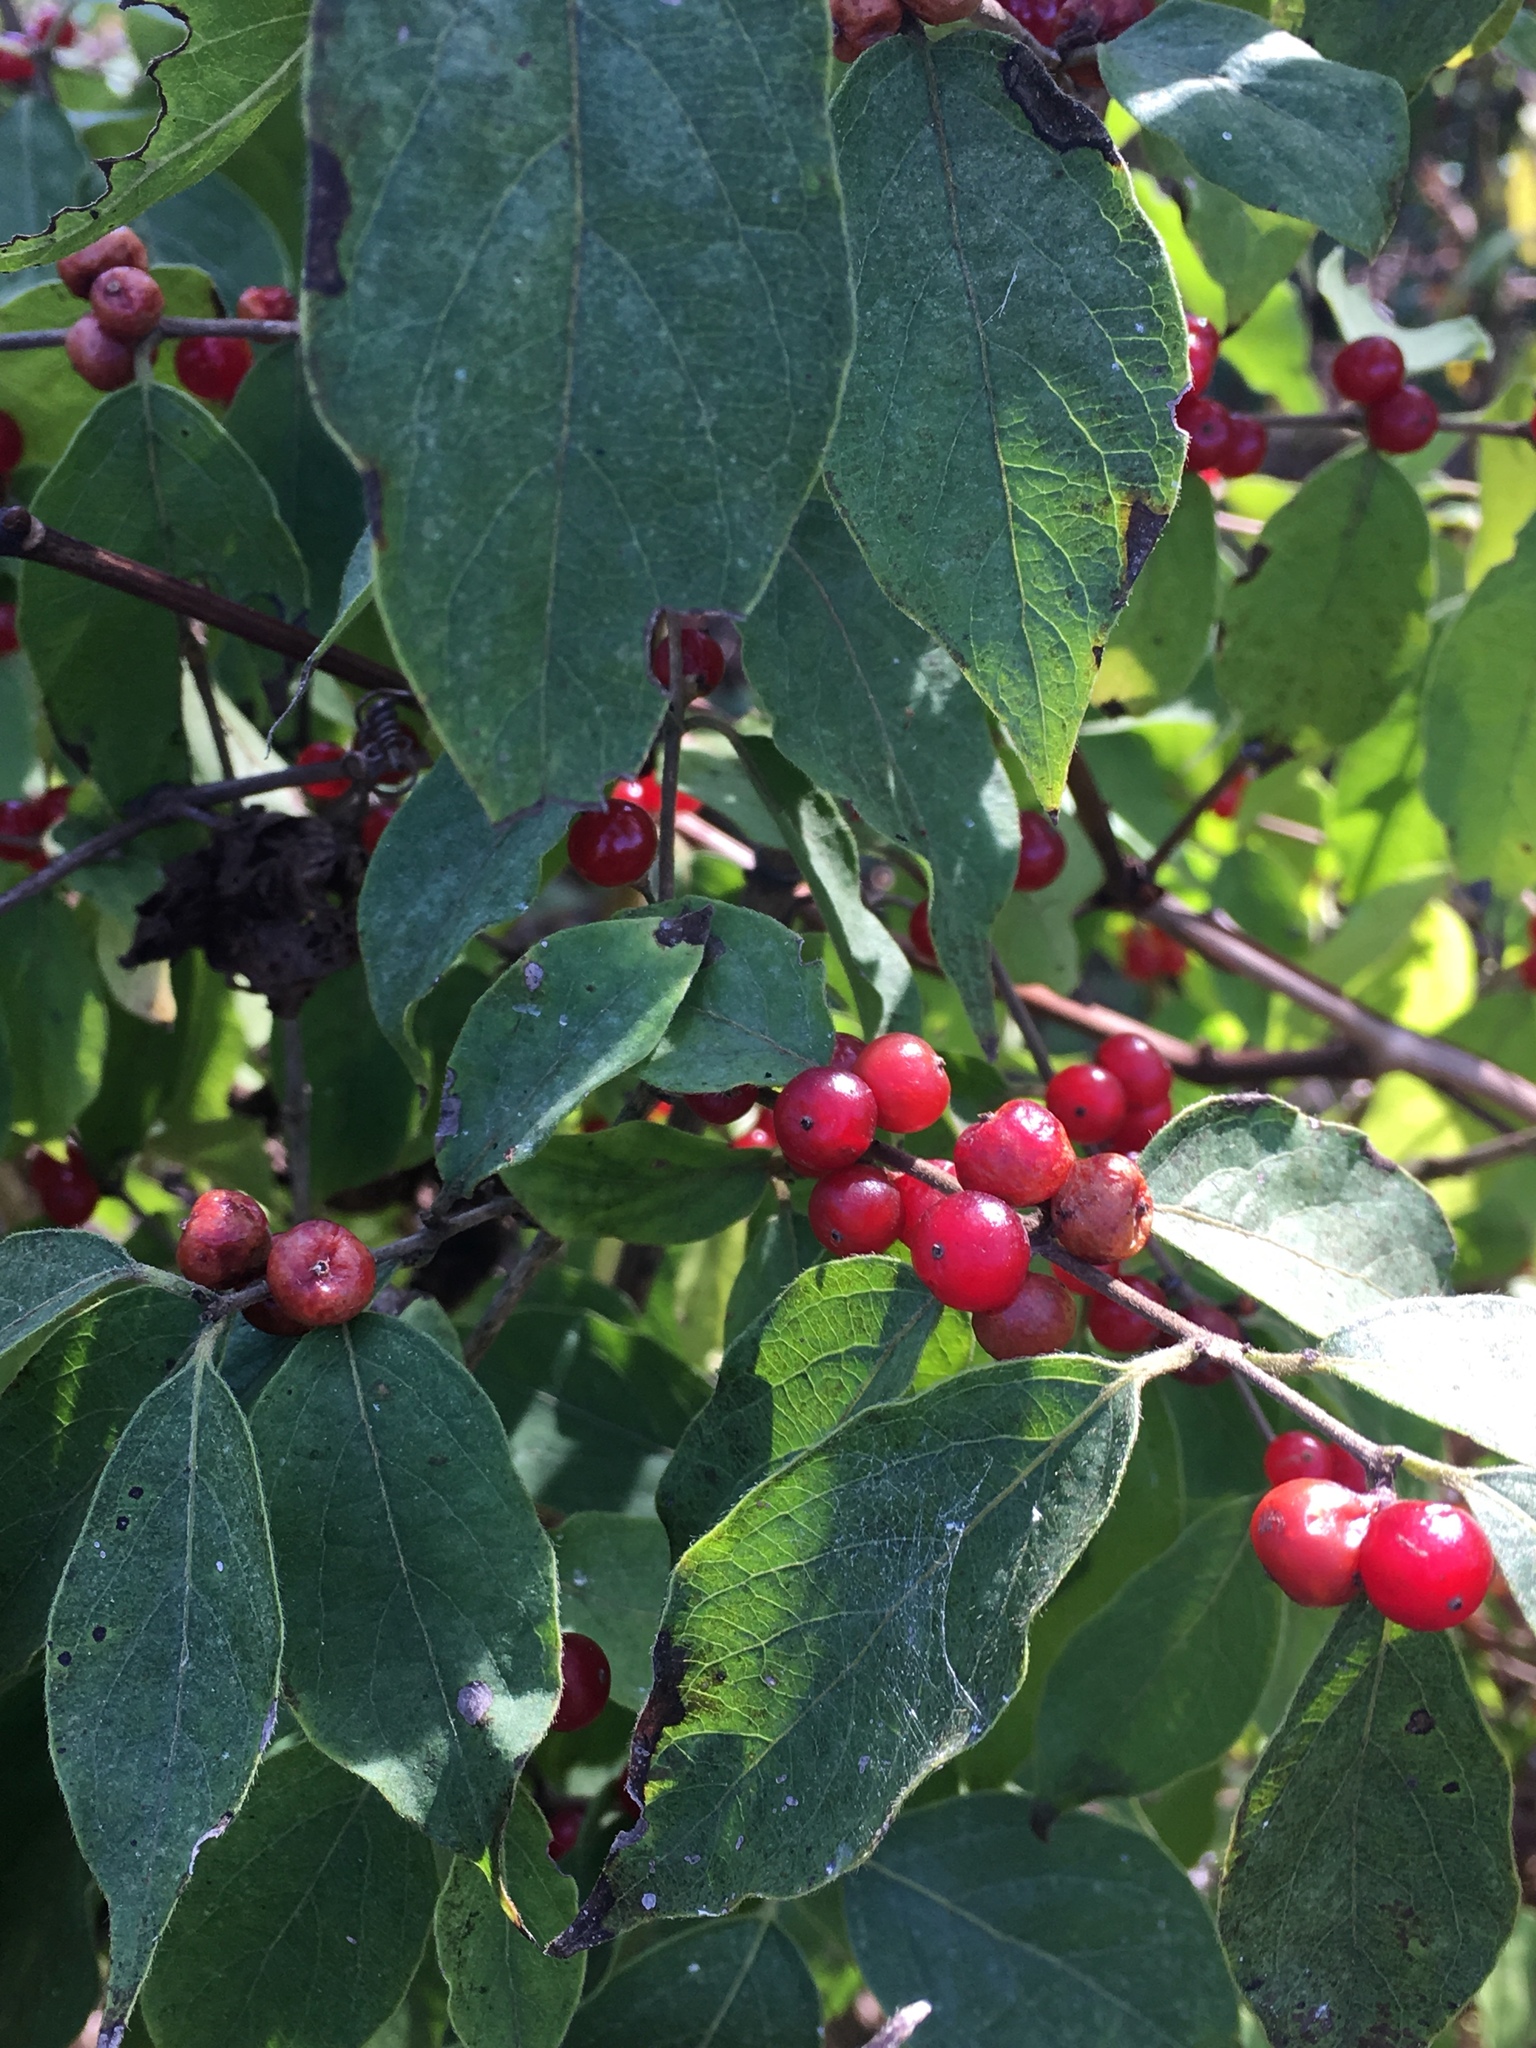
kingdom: Plantae
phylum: Tracheophyta
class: Magnoliopsida
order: Dipsacales
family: Caprifoliaceae
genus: Lonicera
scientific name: Lonicera maackii
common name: Amur honeysuckle
